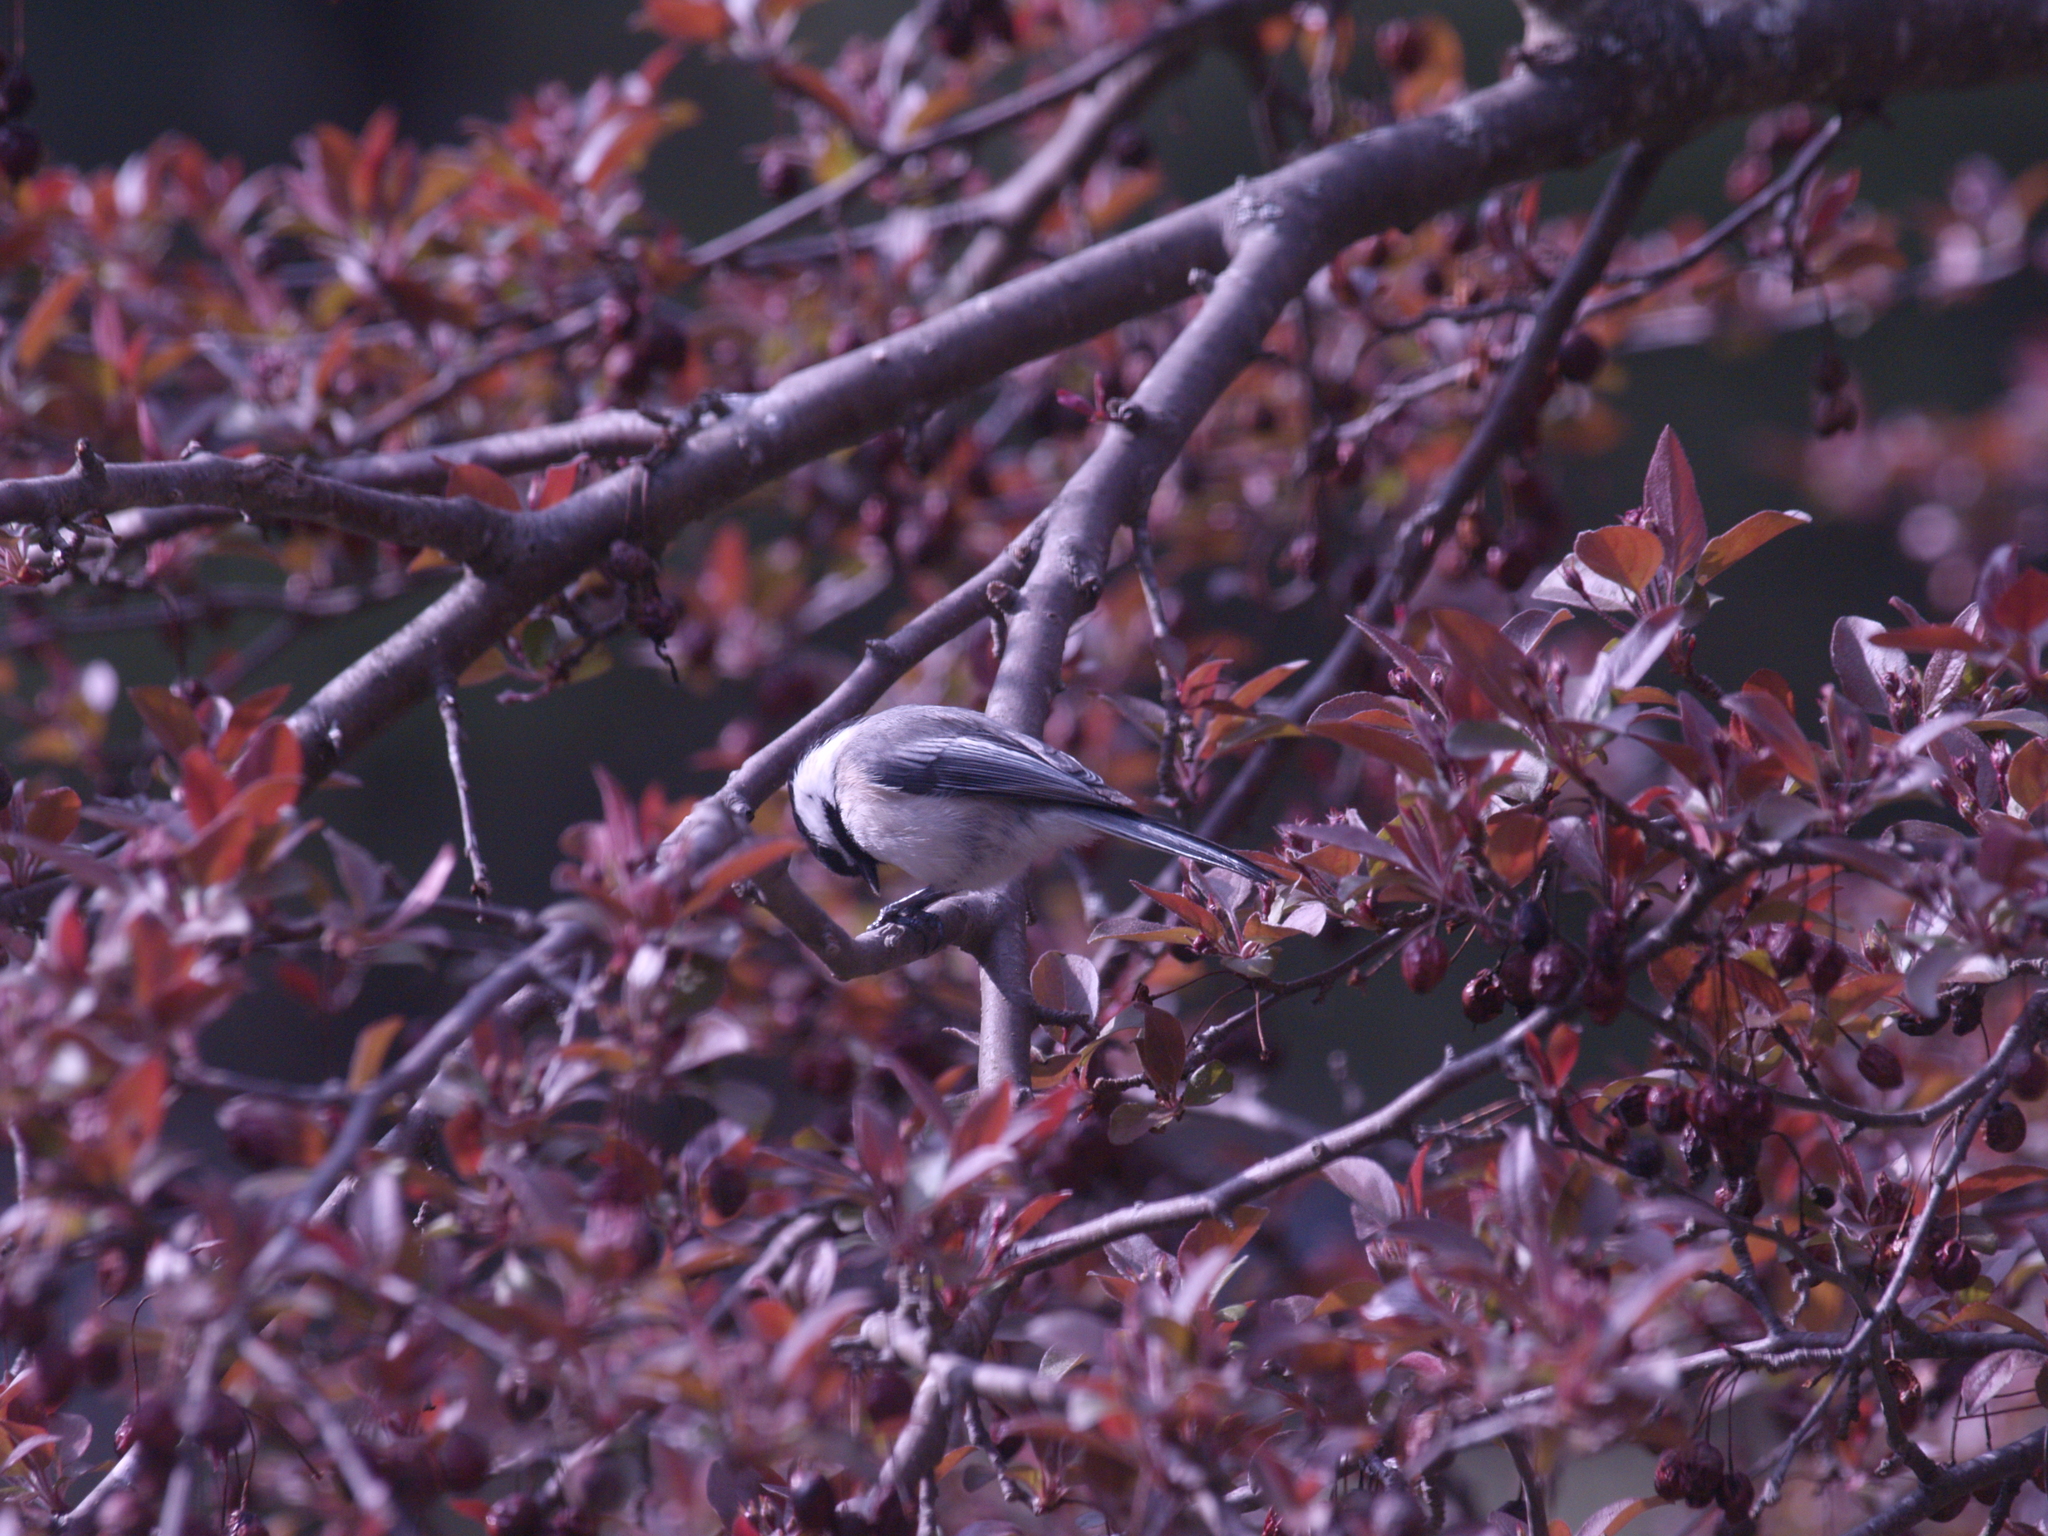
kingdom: Animalia
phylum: Chordata
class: Aves
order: Passeriformes
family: Paridae
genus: Poecile
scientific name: Poecile atricapillus
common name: Black-capped chickadee
